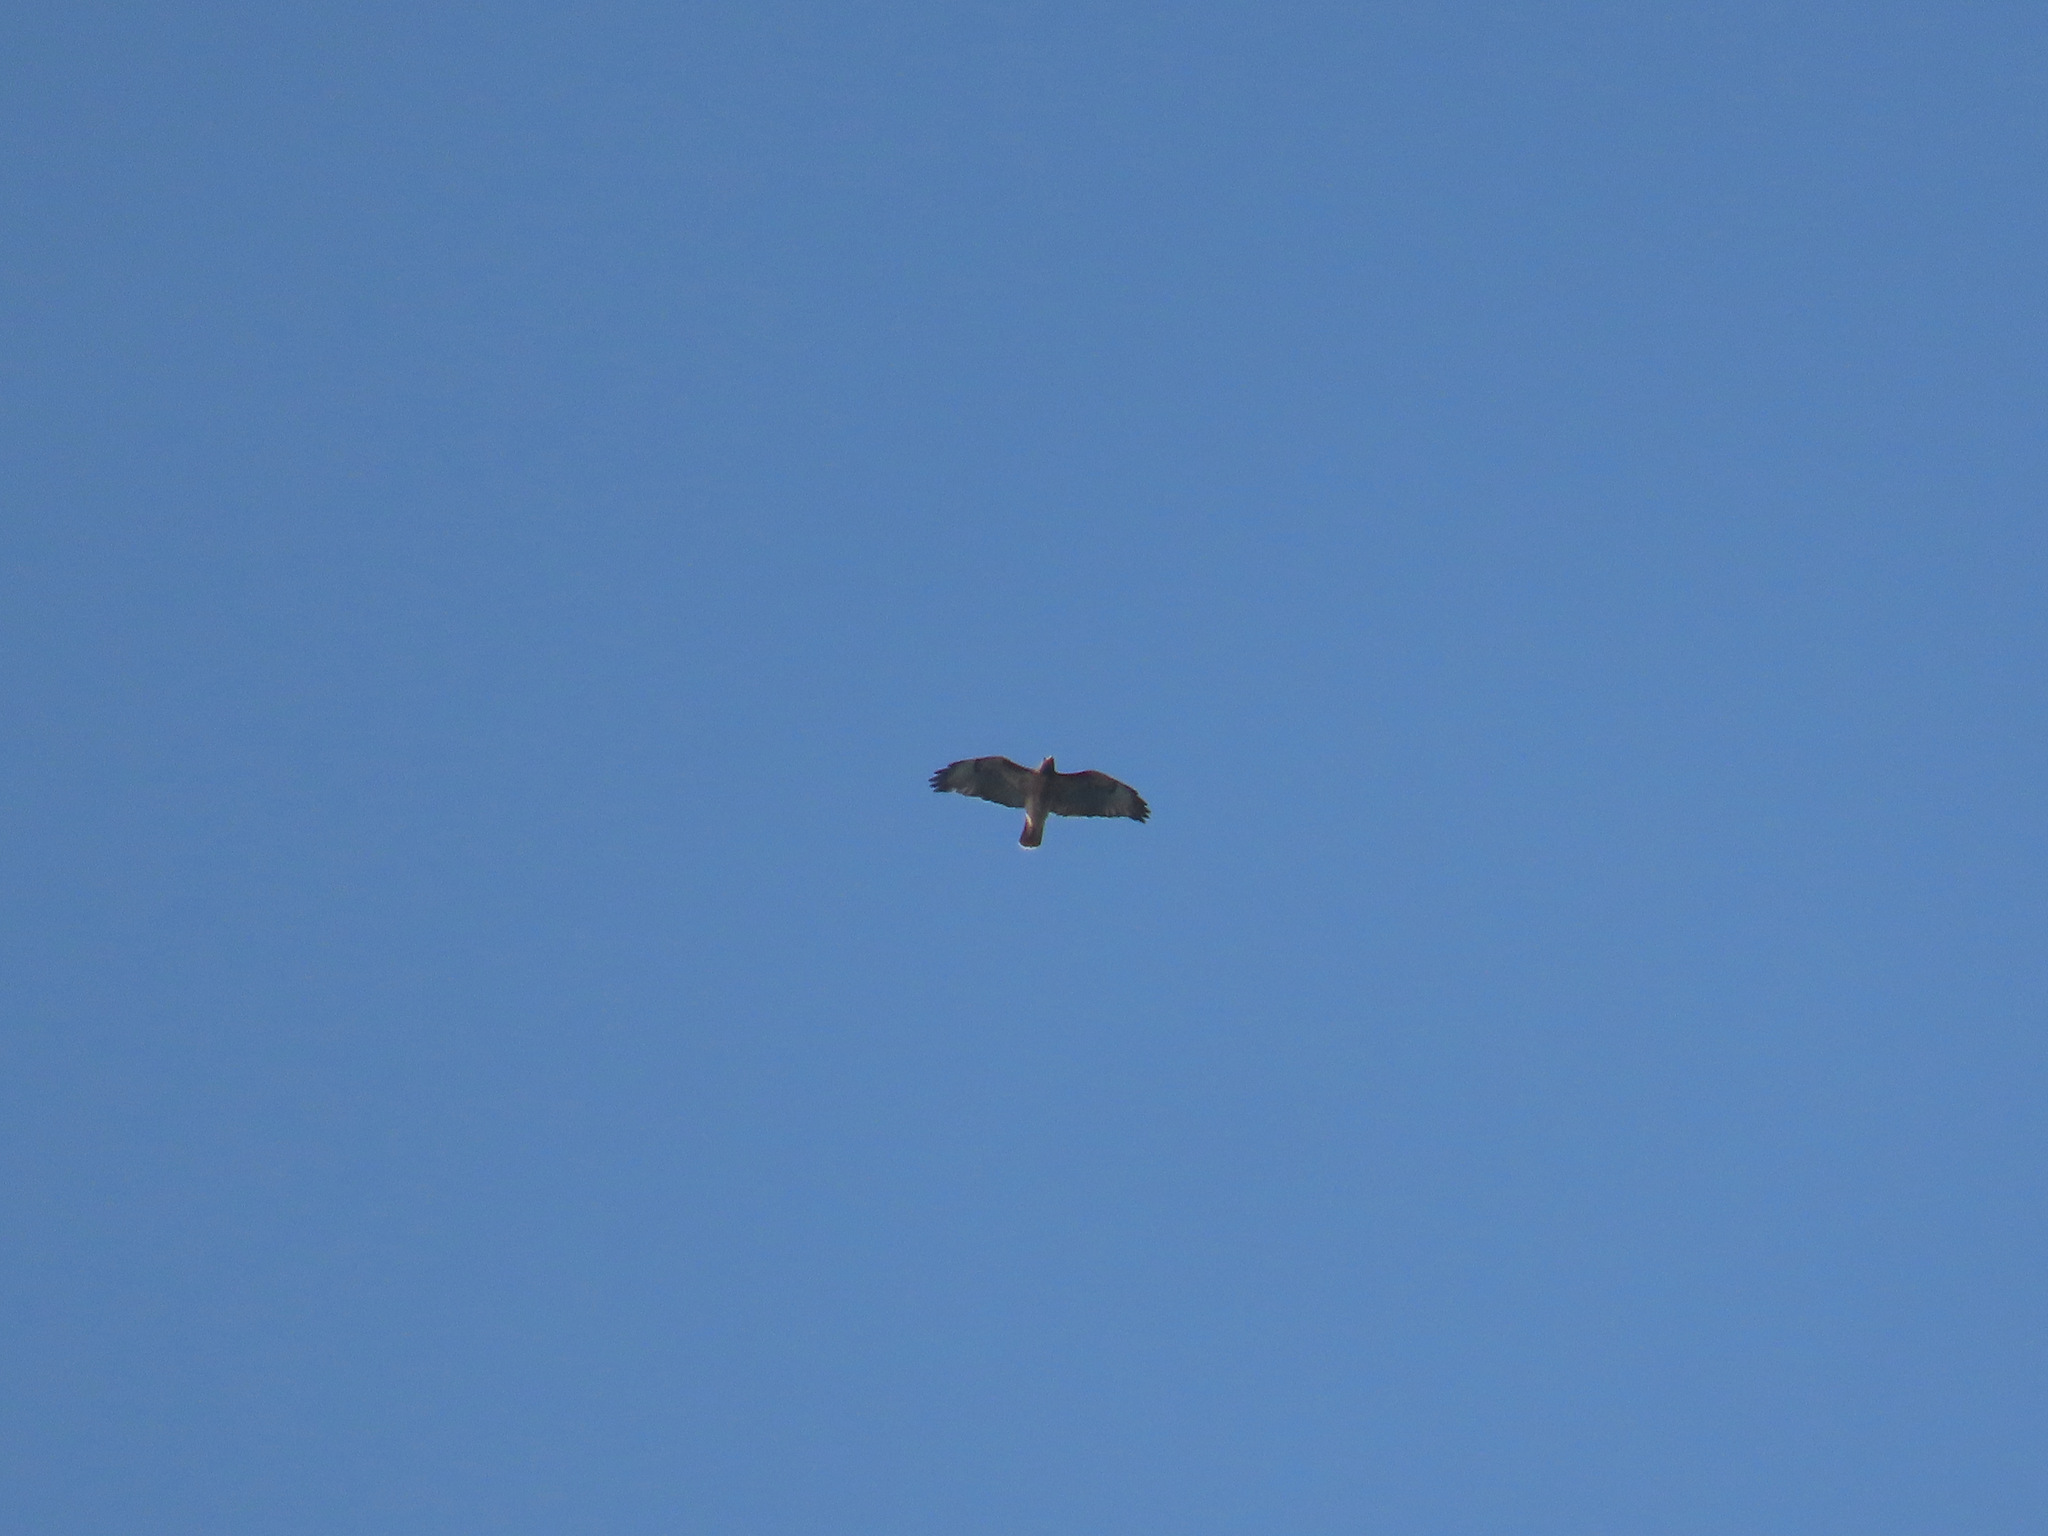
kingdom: Animalia
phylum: Chordata
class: Aves
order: Accipitriformes
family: Accipitridae
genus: Buteo
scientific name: Buteo jamaicensis
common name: Red-tailed hawk
